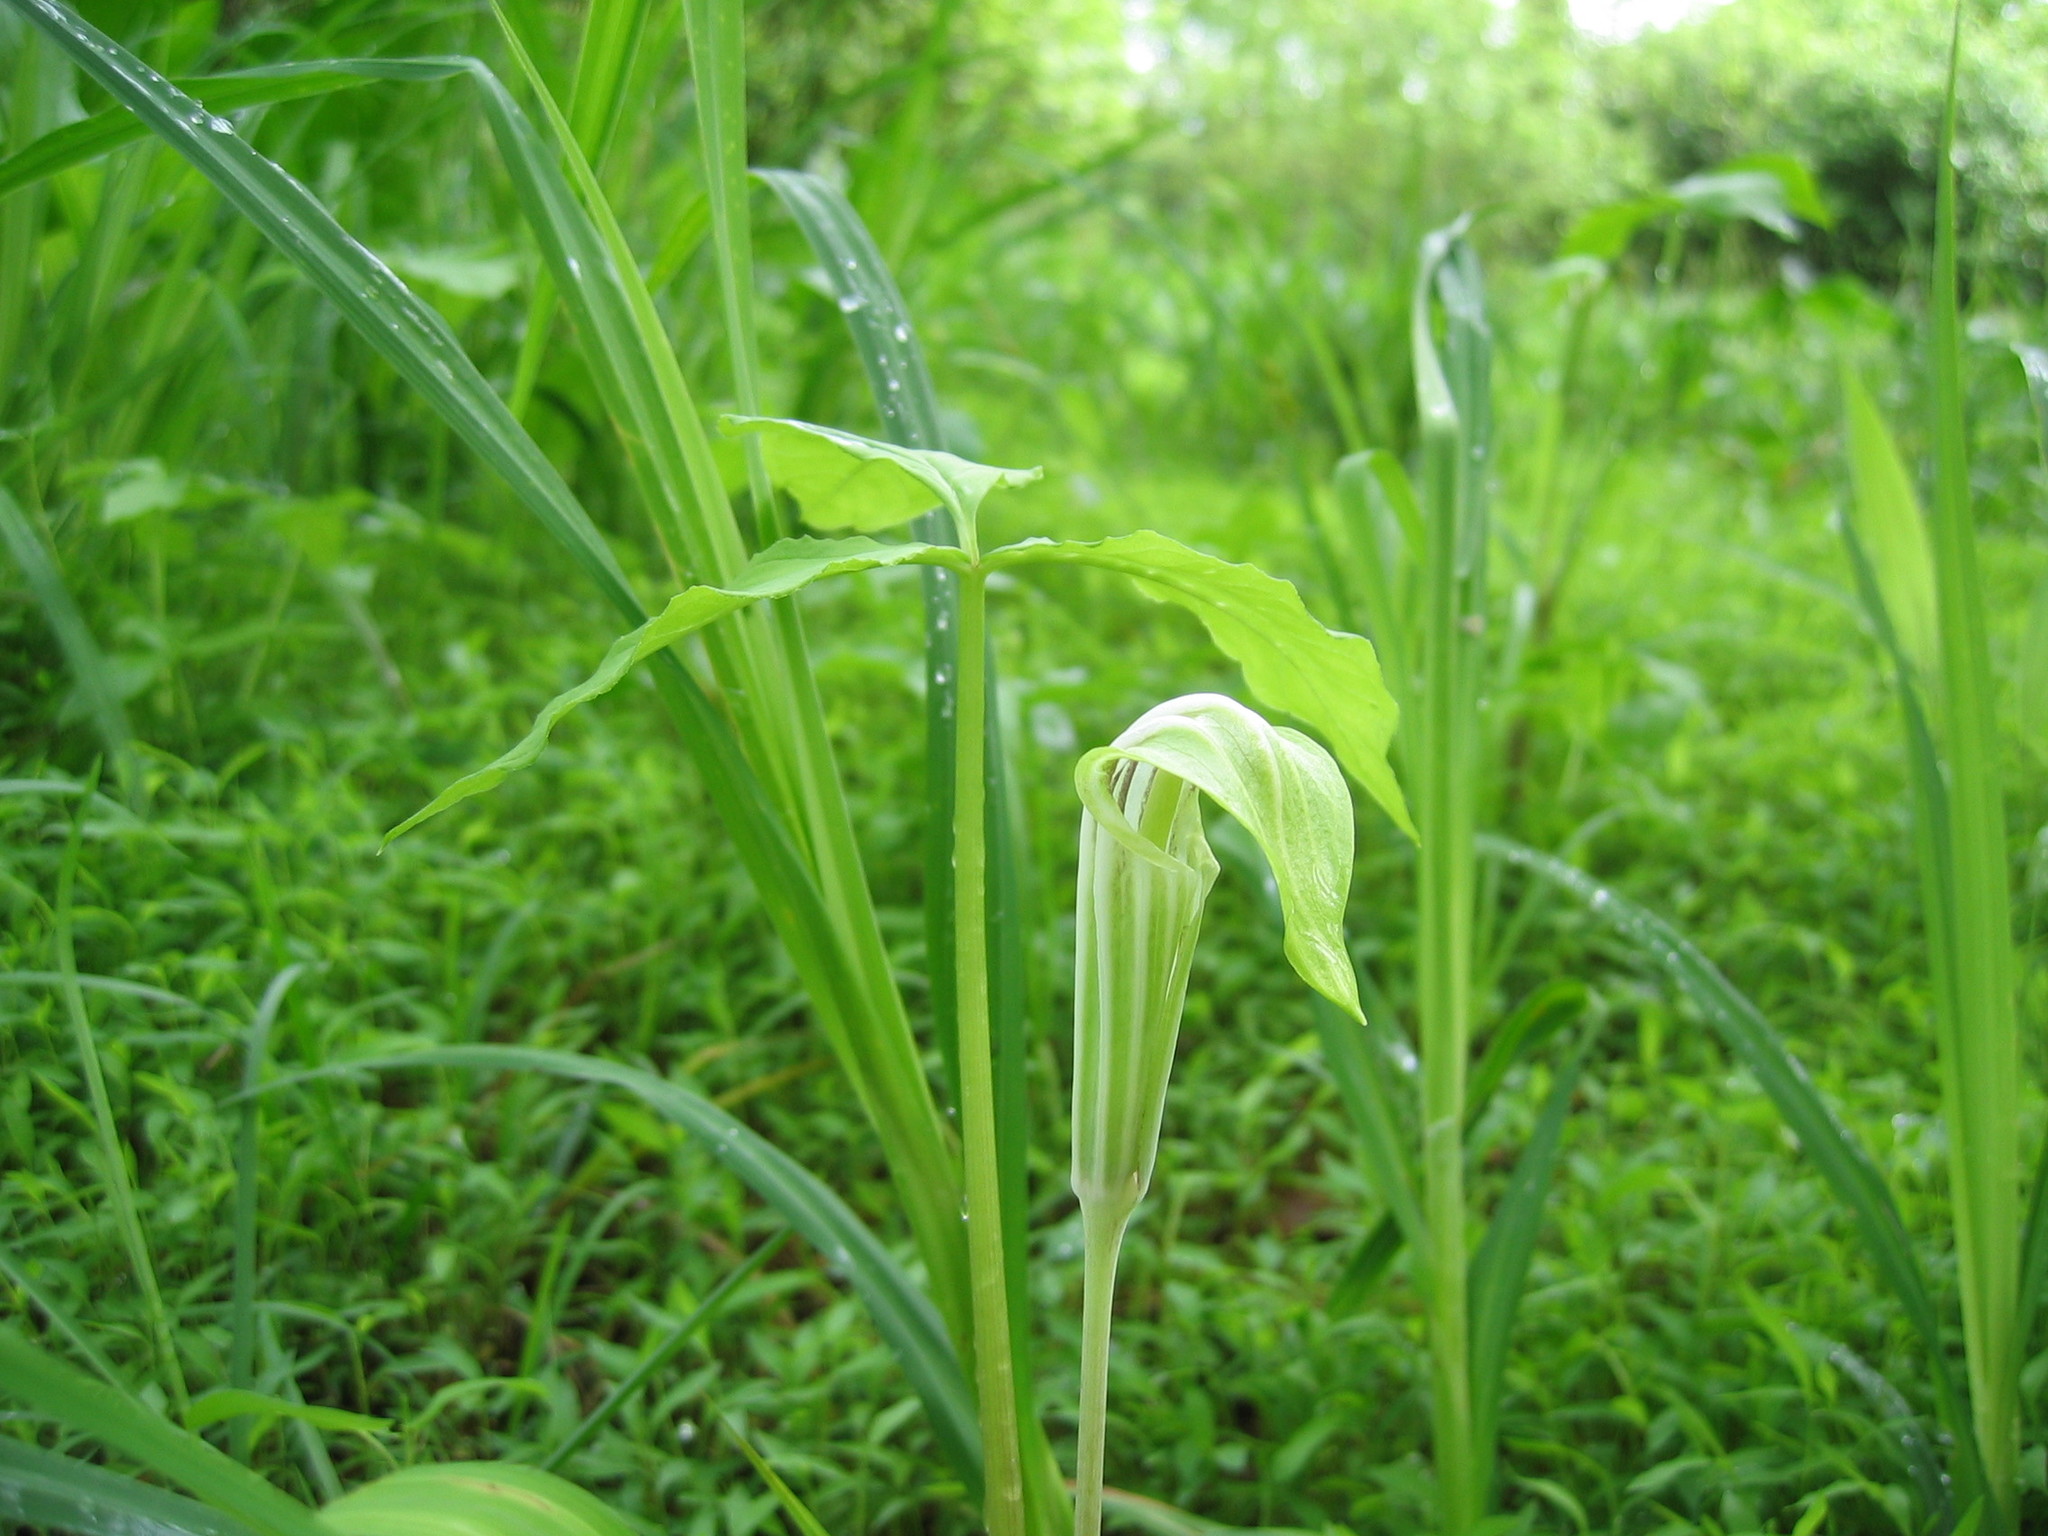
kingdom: Plantae
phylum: Tracheophyta
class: Liliopsida
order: Alismatales
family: Araceae
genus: Arisaema
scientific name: Arisaema triphyllum
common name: Jack-in-the-pulpit
